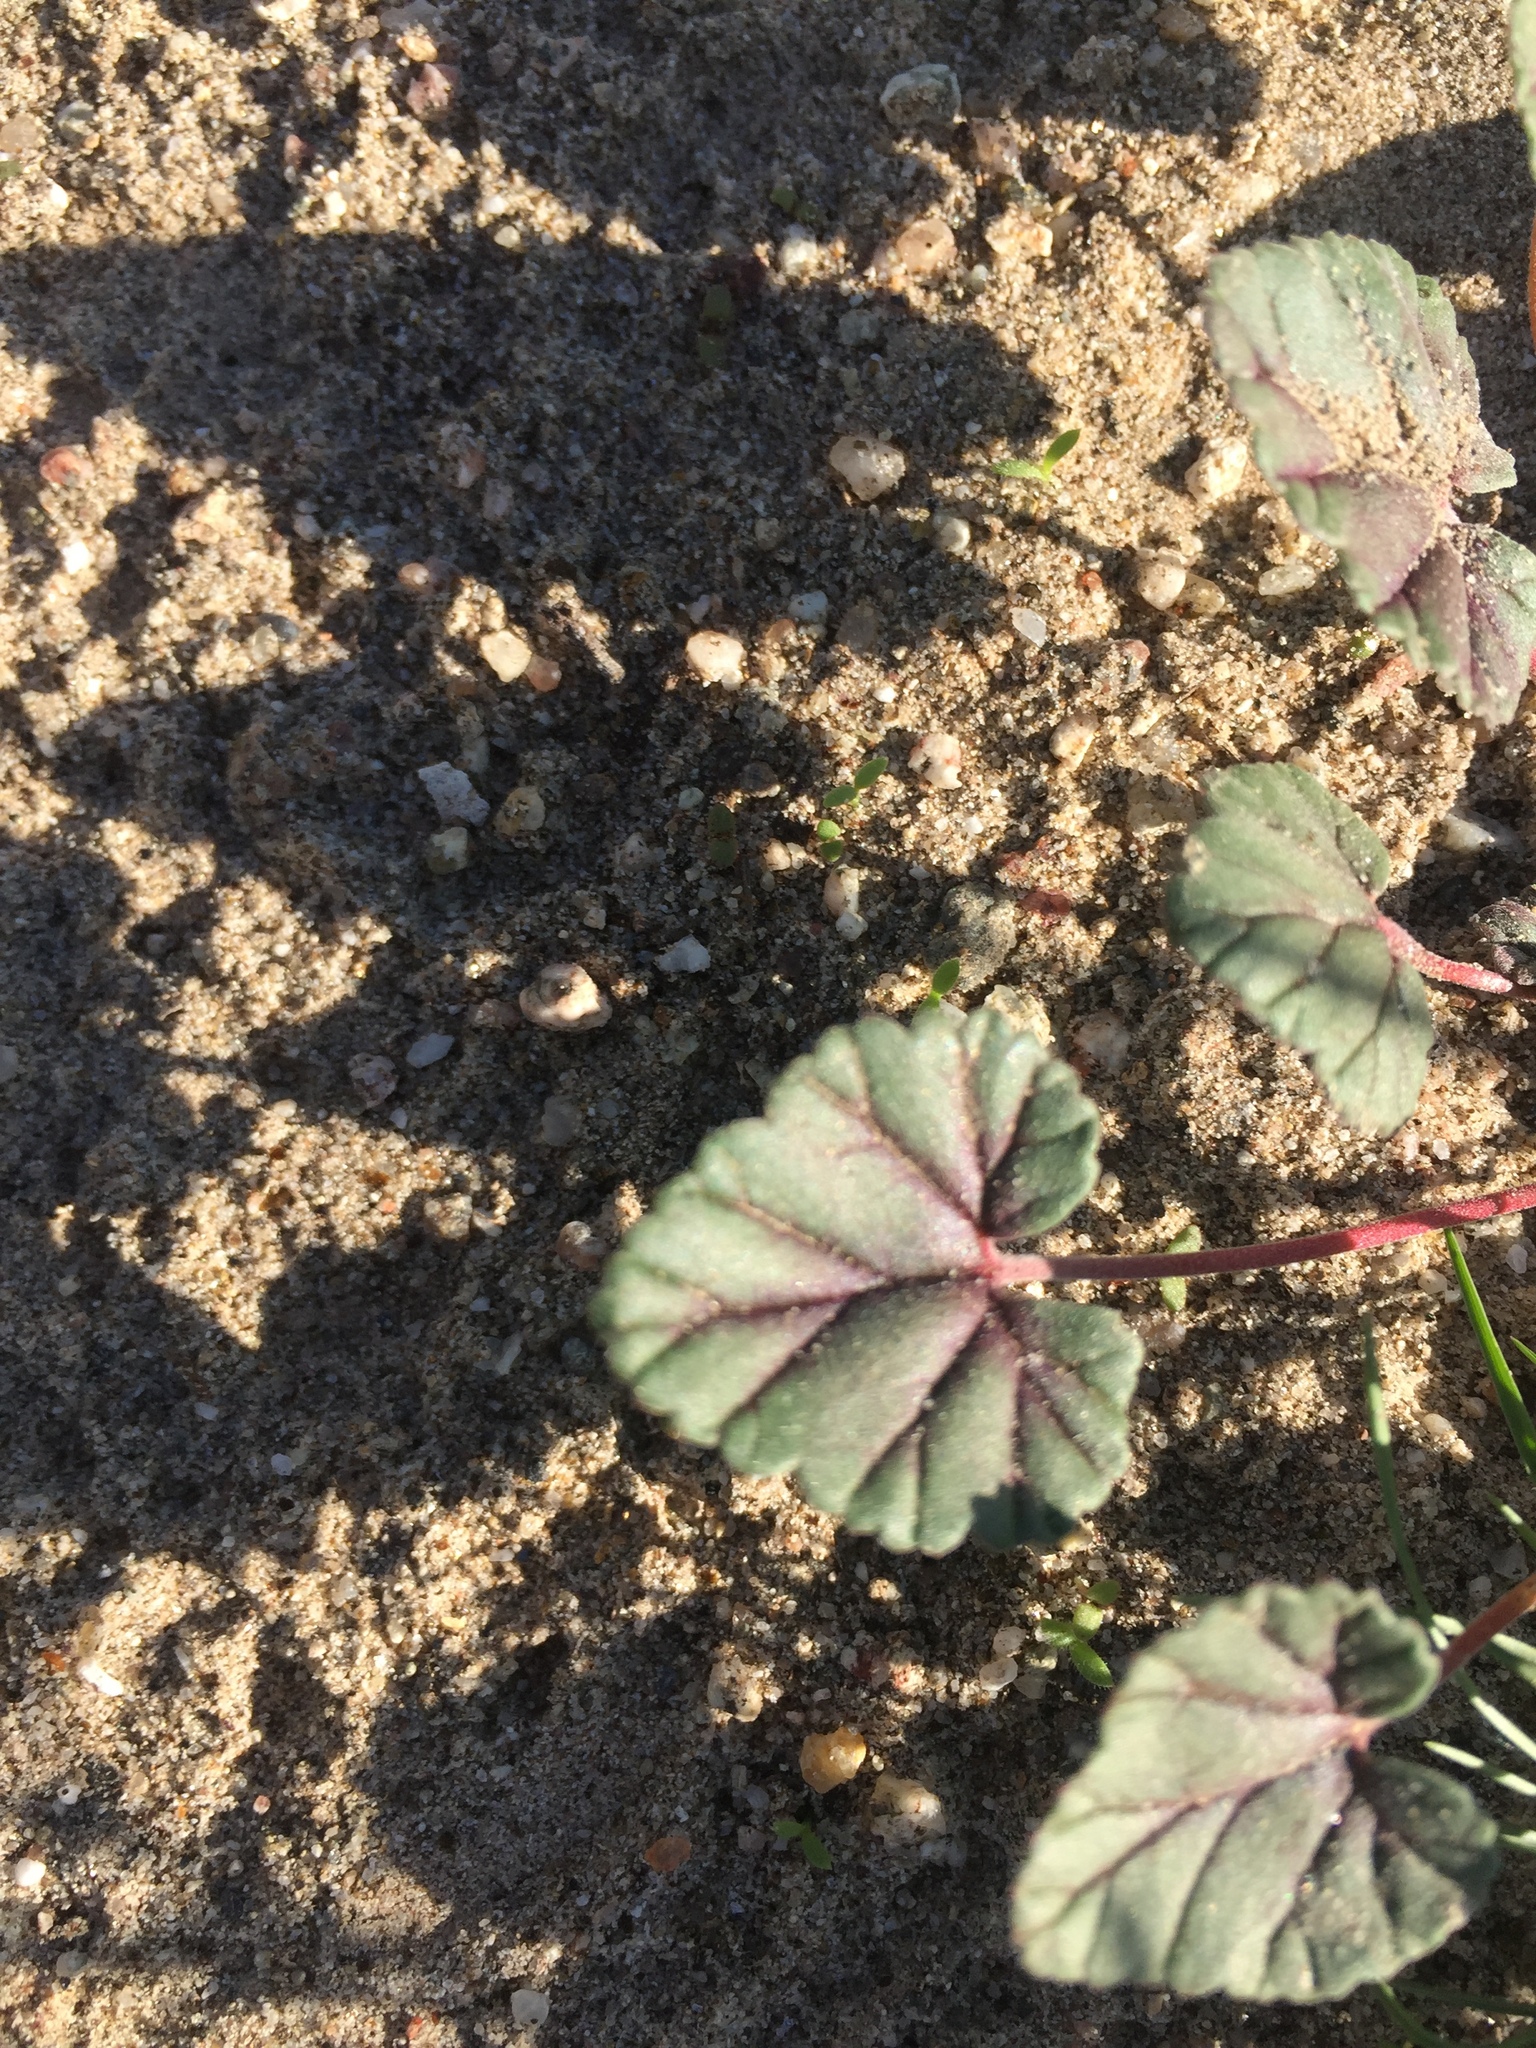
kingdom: Plantae
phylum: Tracheophyta
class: Magnoliopsida
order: Geraniales
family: Geraniaceae
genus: Erodium
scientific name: Erodium texanum
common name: Texas stork's-bill
